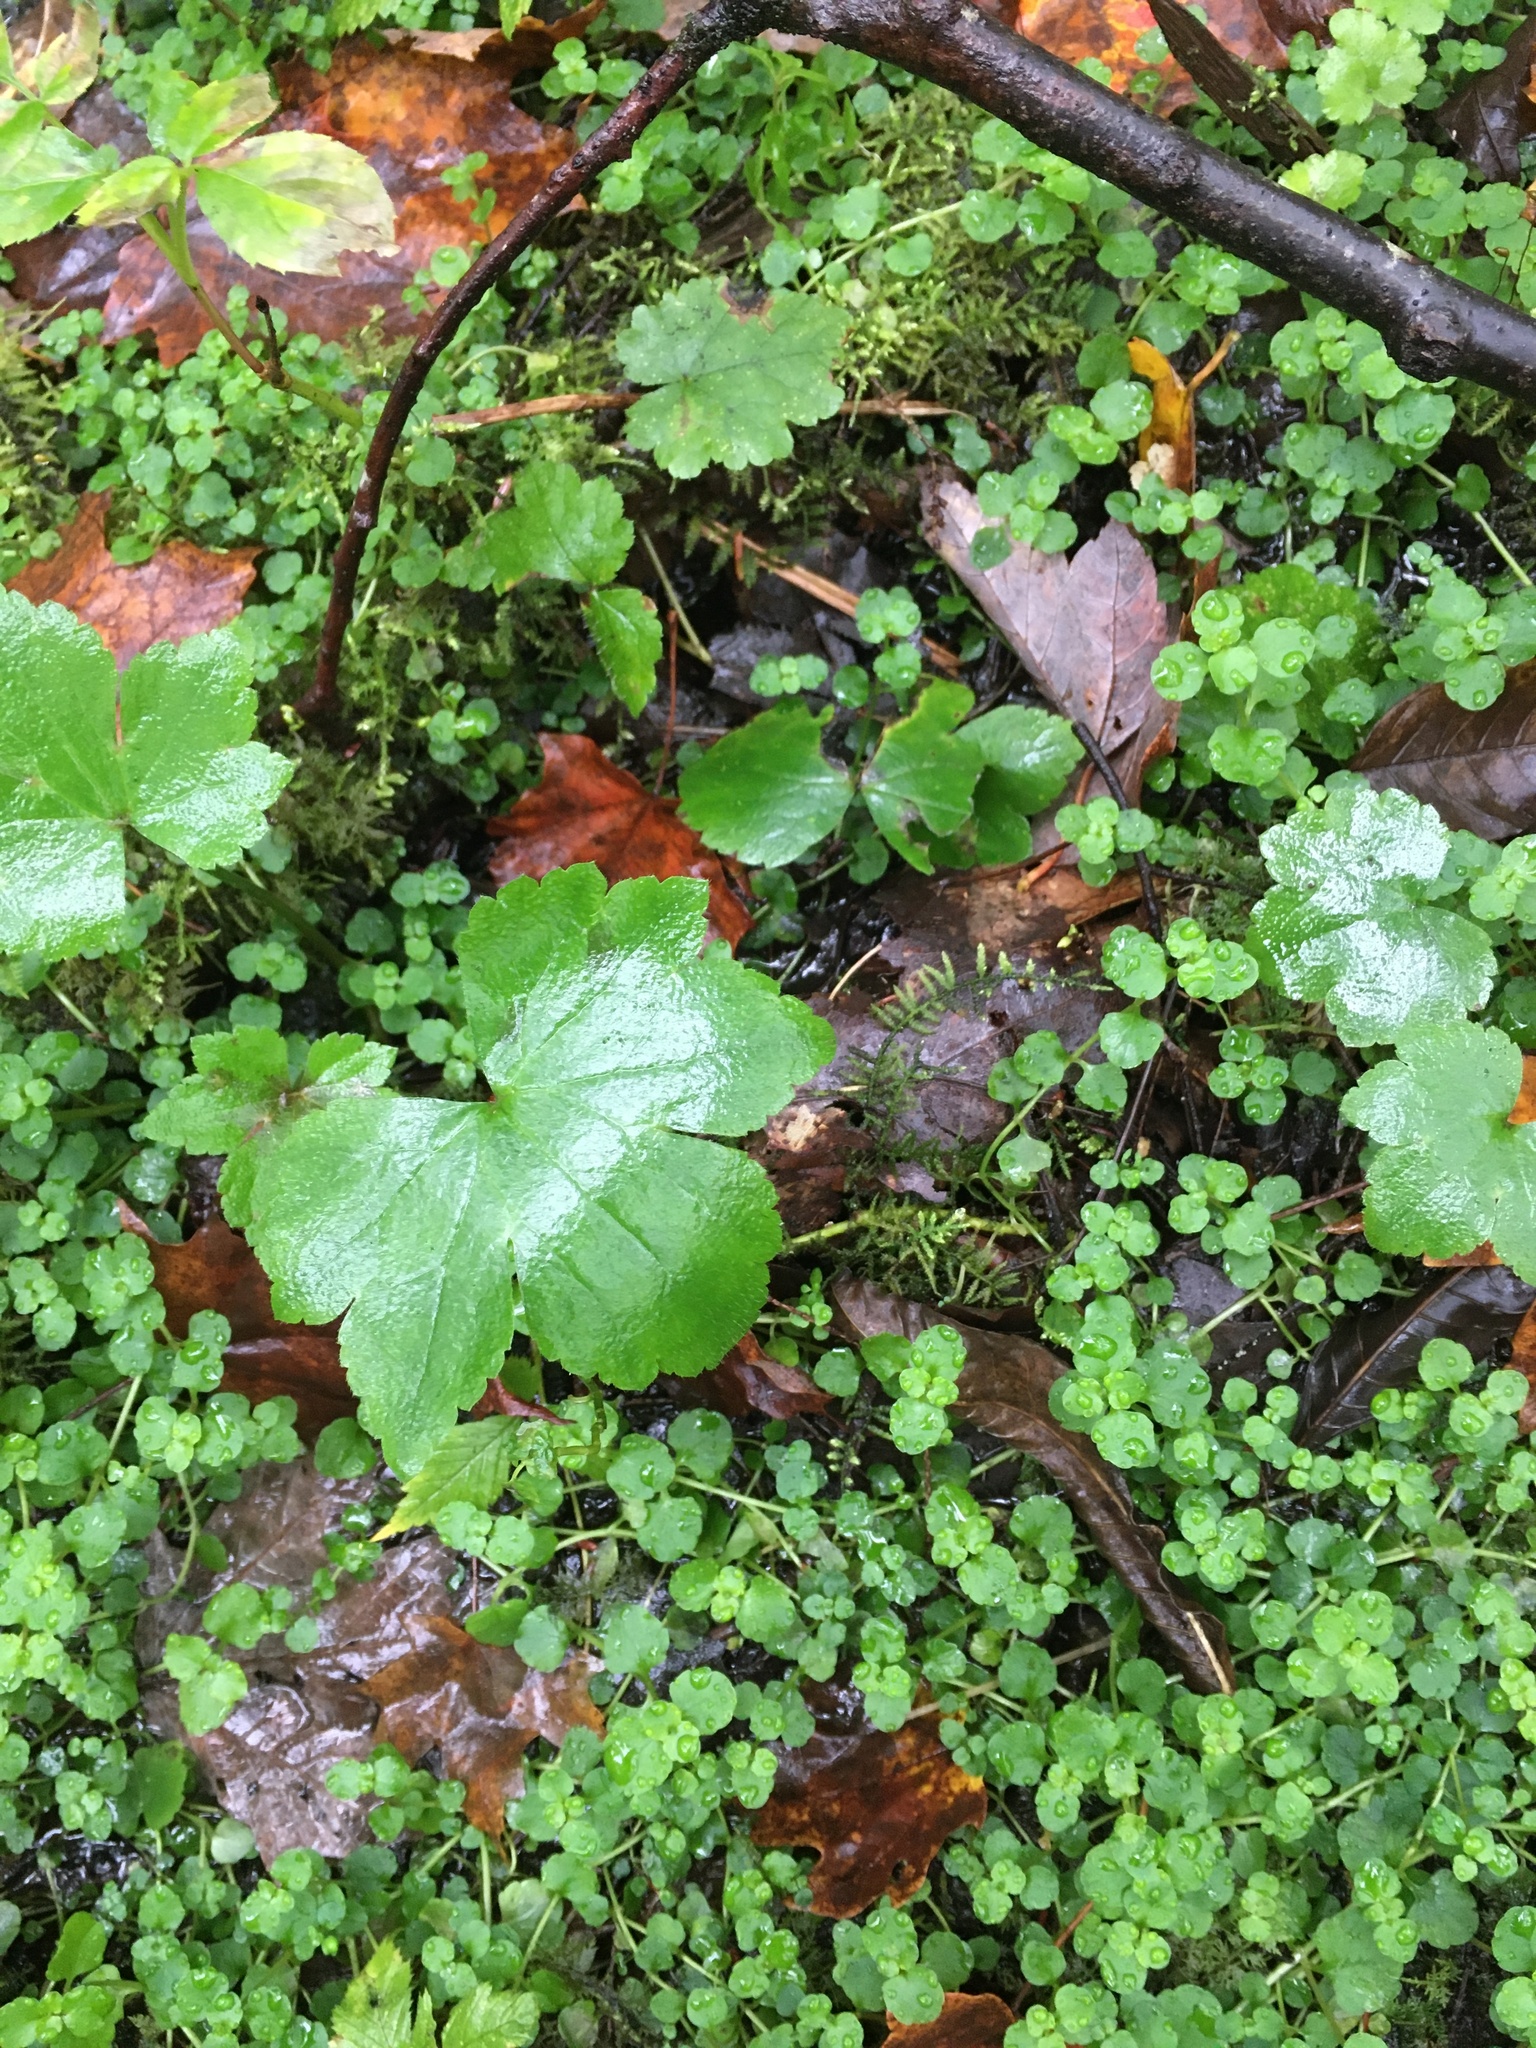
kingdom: Plantae
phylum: Tracheophyta
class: Magnoliopsida
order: Ranunculales
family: Ranunculaceae
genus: Ranunculus
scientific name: Ranunculus recurvatus
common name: Blisterwort
